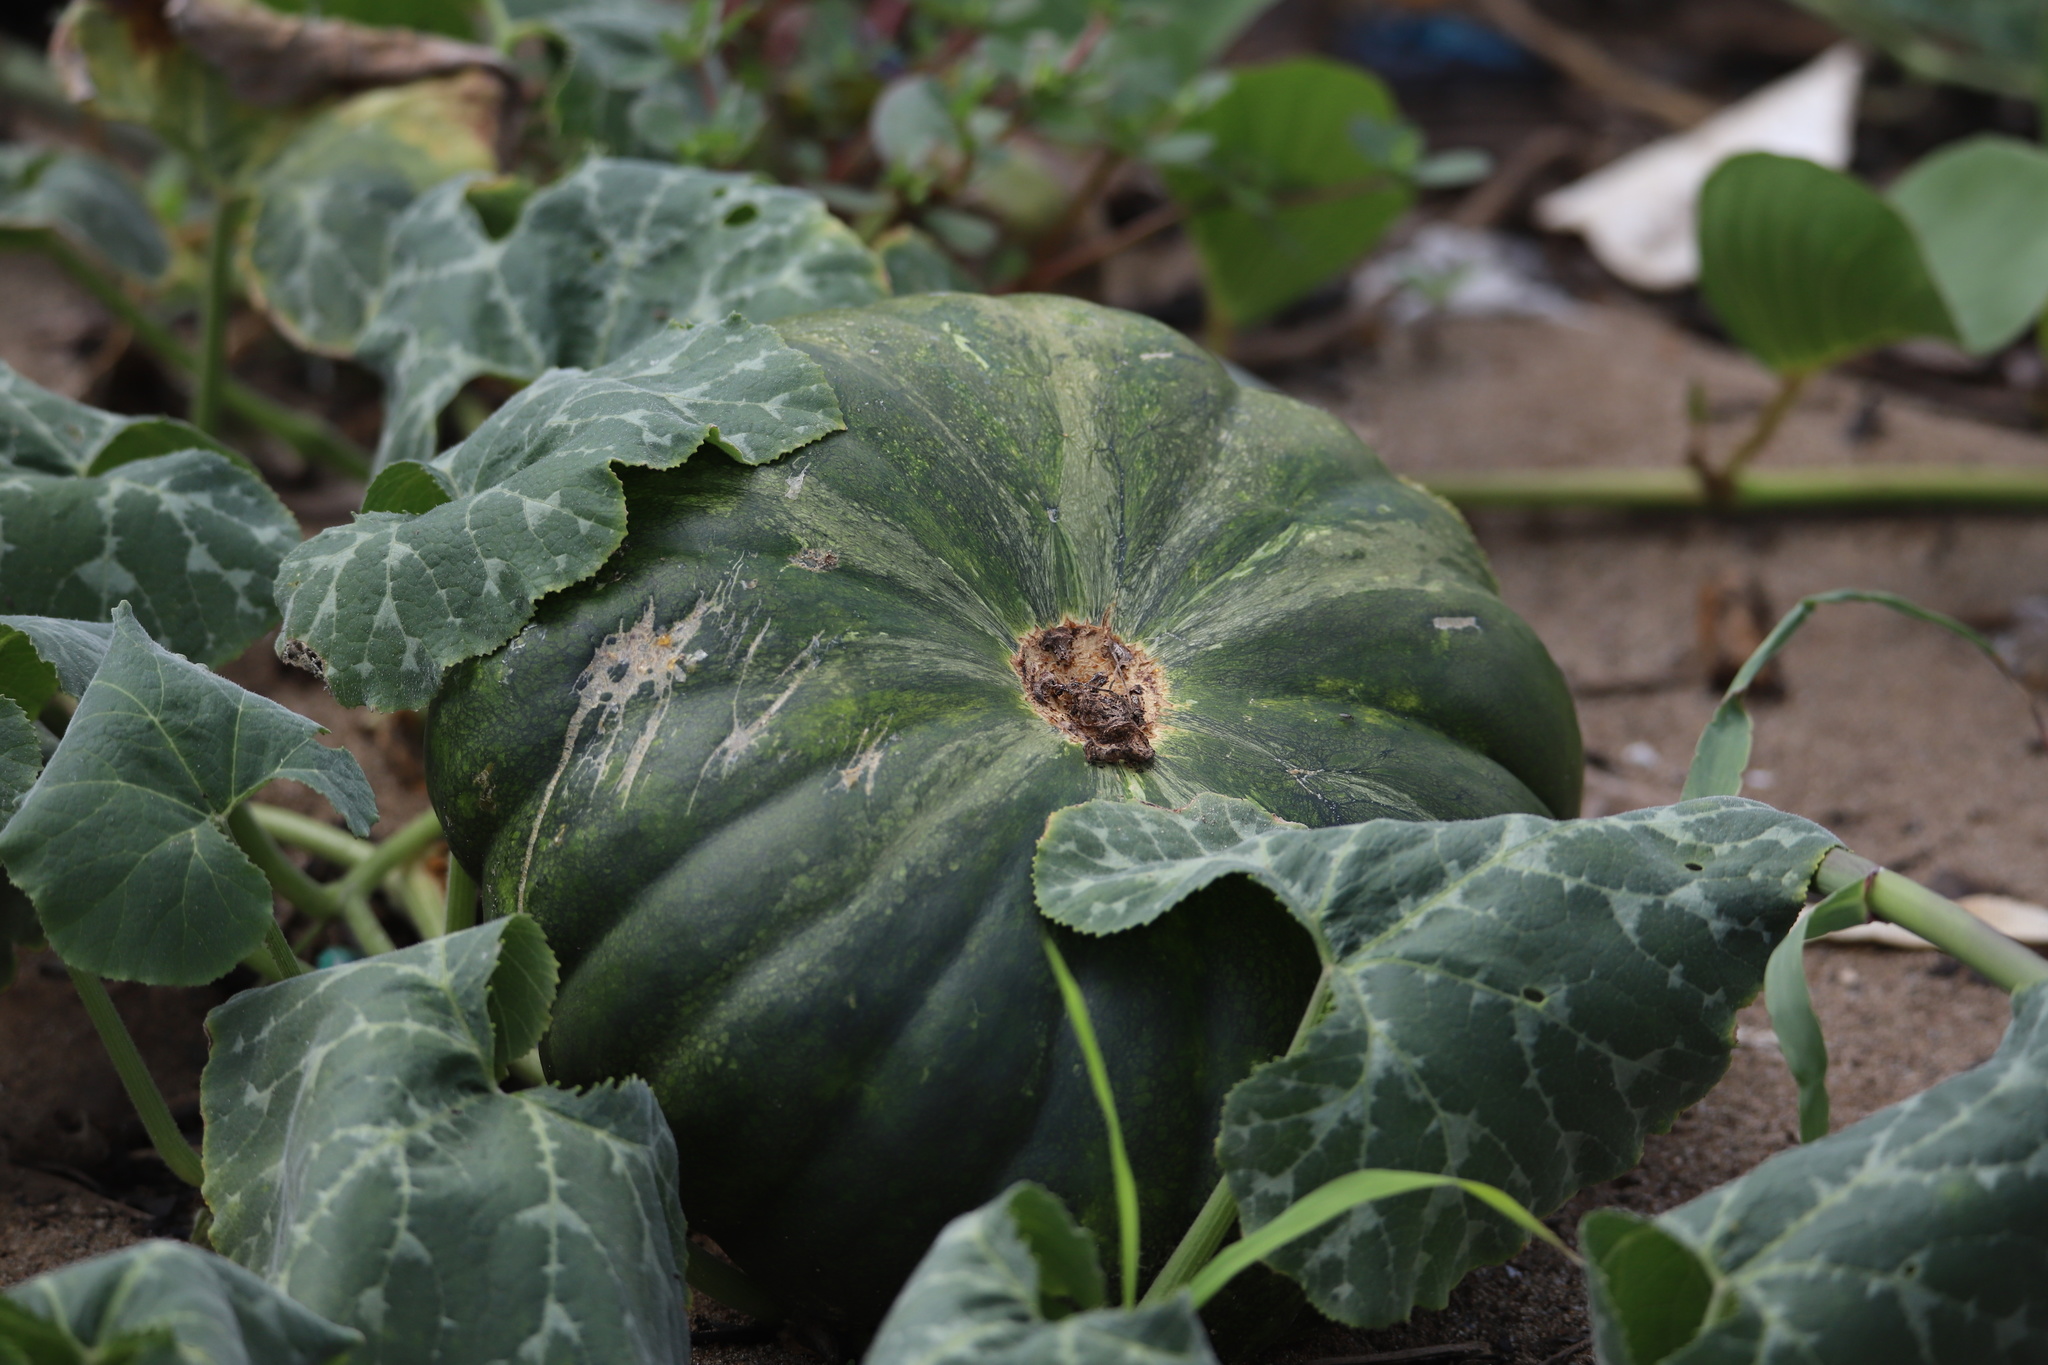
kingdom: Plantae
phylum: Tracheophyta
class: Magnoliopsida
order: Cucurbitales
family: Cucurbitaceae
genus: Cucurbita
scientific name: Cucurbita moschata
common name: Squash / pumpkin
